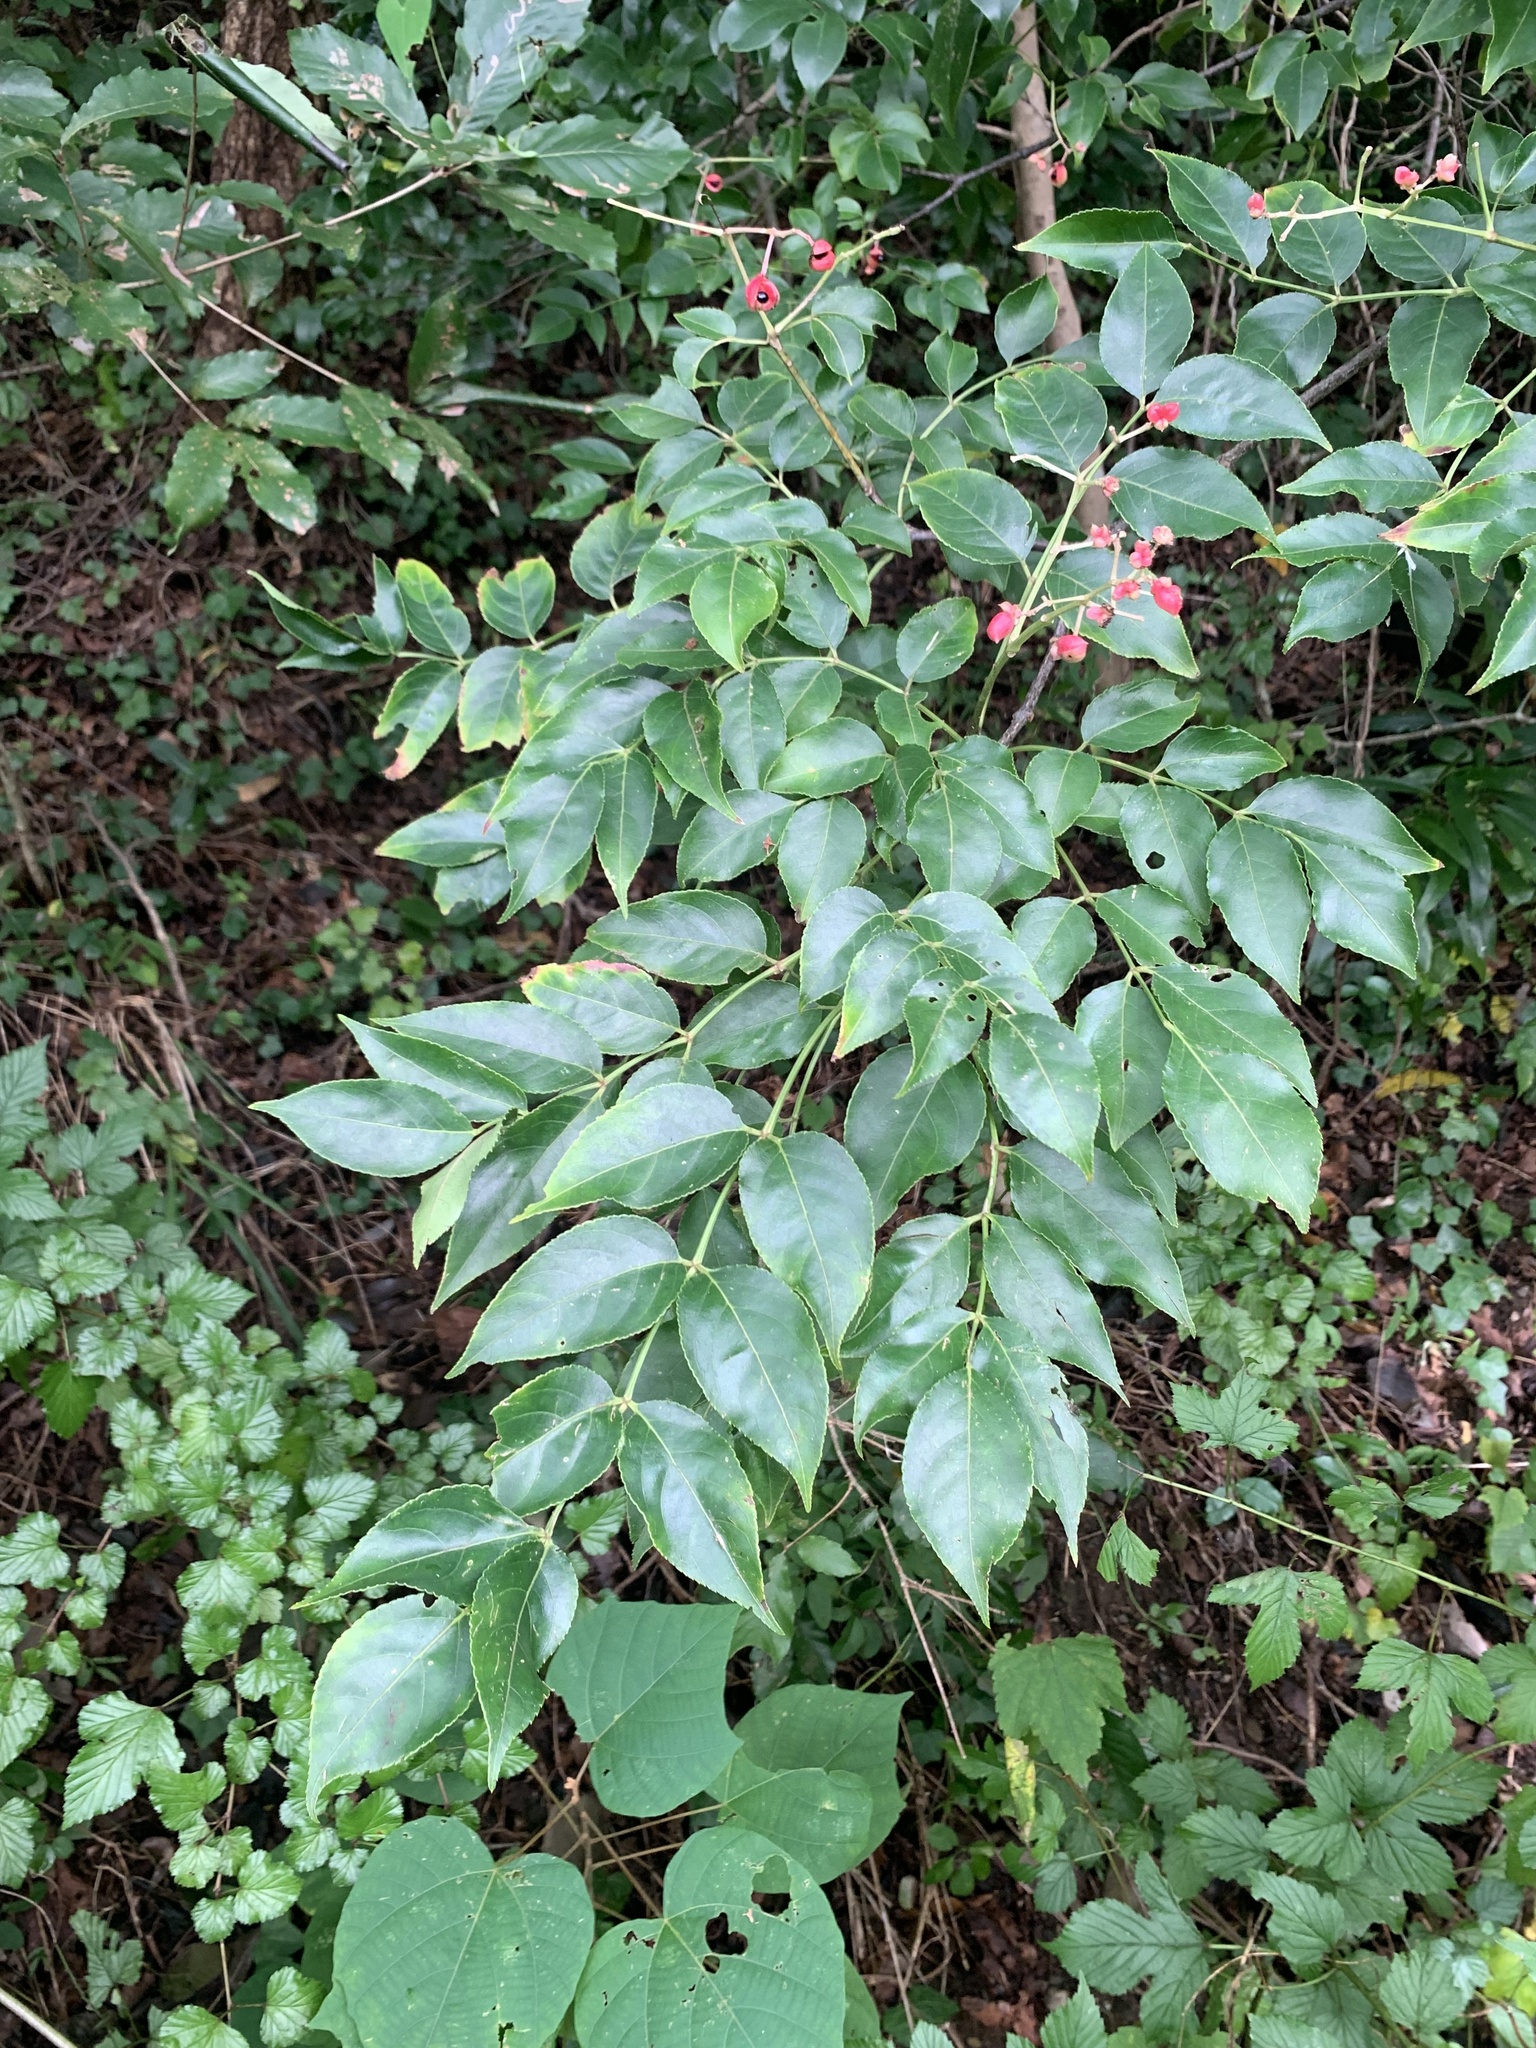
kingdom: Plantae
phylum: Tracheophyta
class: Magnoliopsida
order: Crossosomatales
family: Staphyleaceae
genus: Staphylea
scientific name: Staphylea japonica
